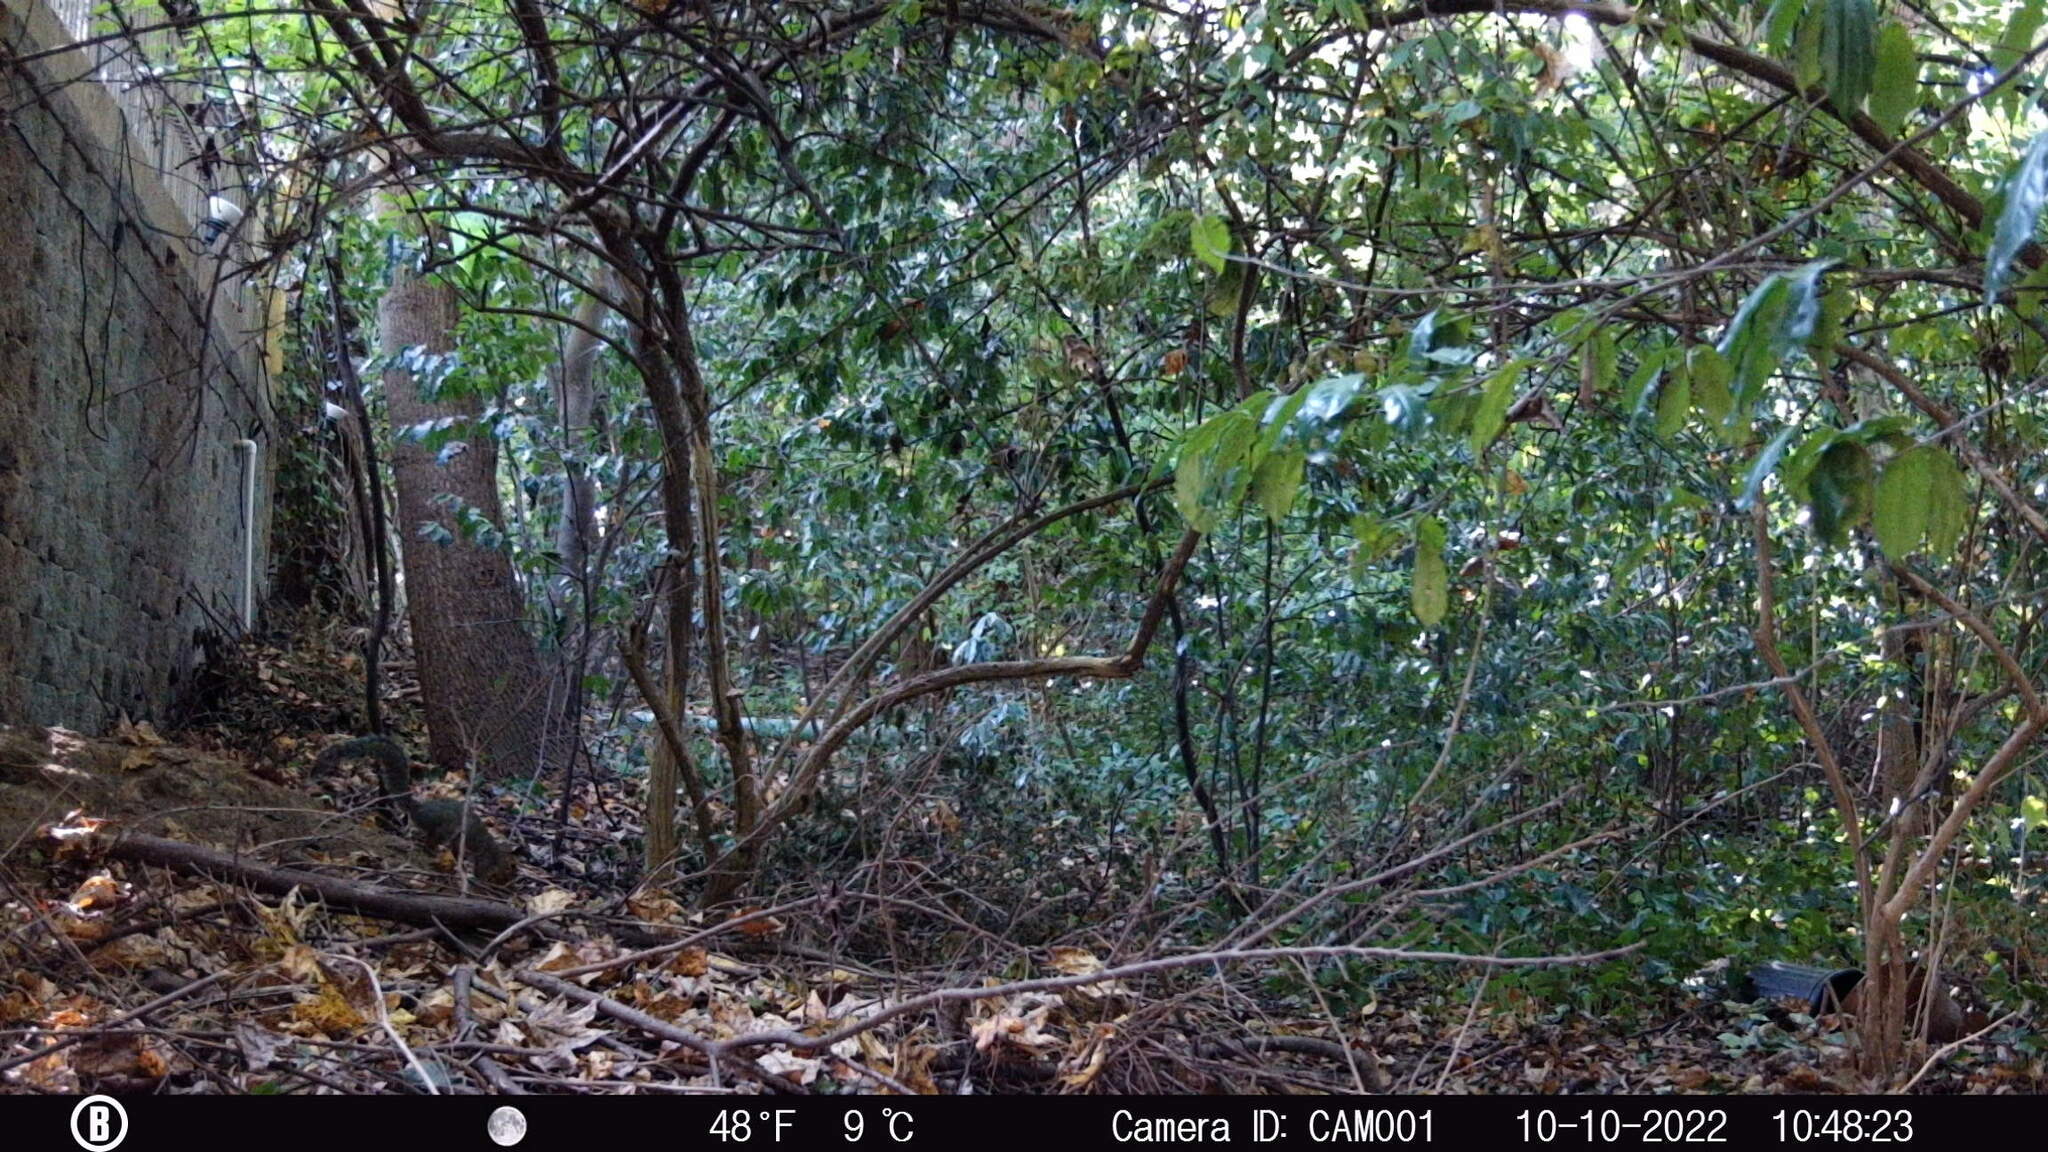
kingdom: Animalia
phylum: Chordata
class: Mammalia
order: Rodentia
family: Sciuridae
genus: Sciurus
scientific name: Sciurus carolinensis
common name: Eastern gray squirrel
